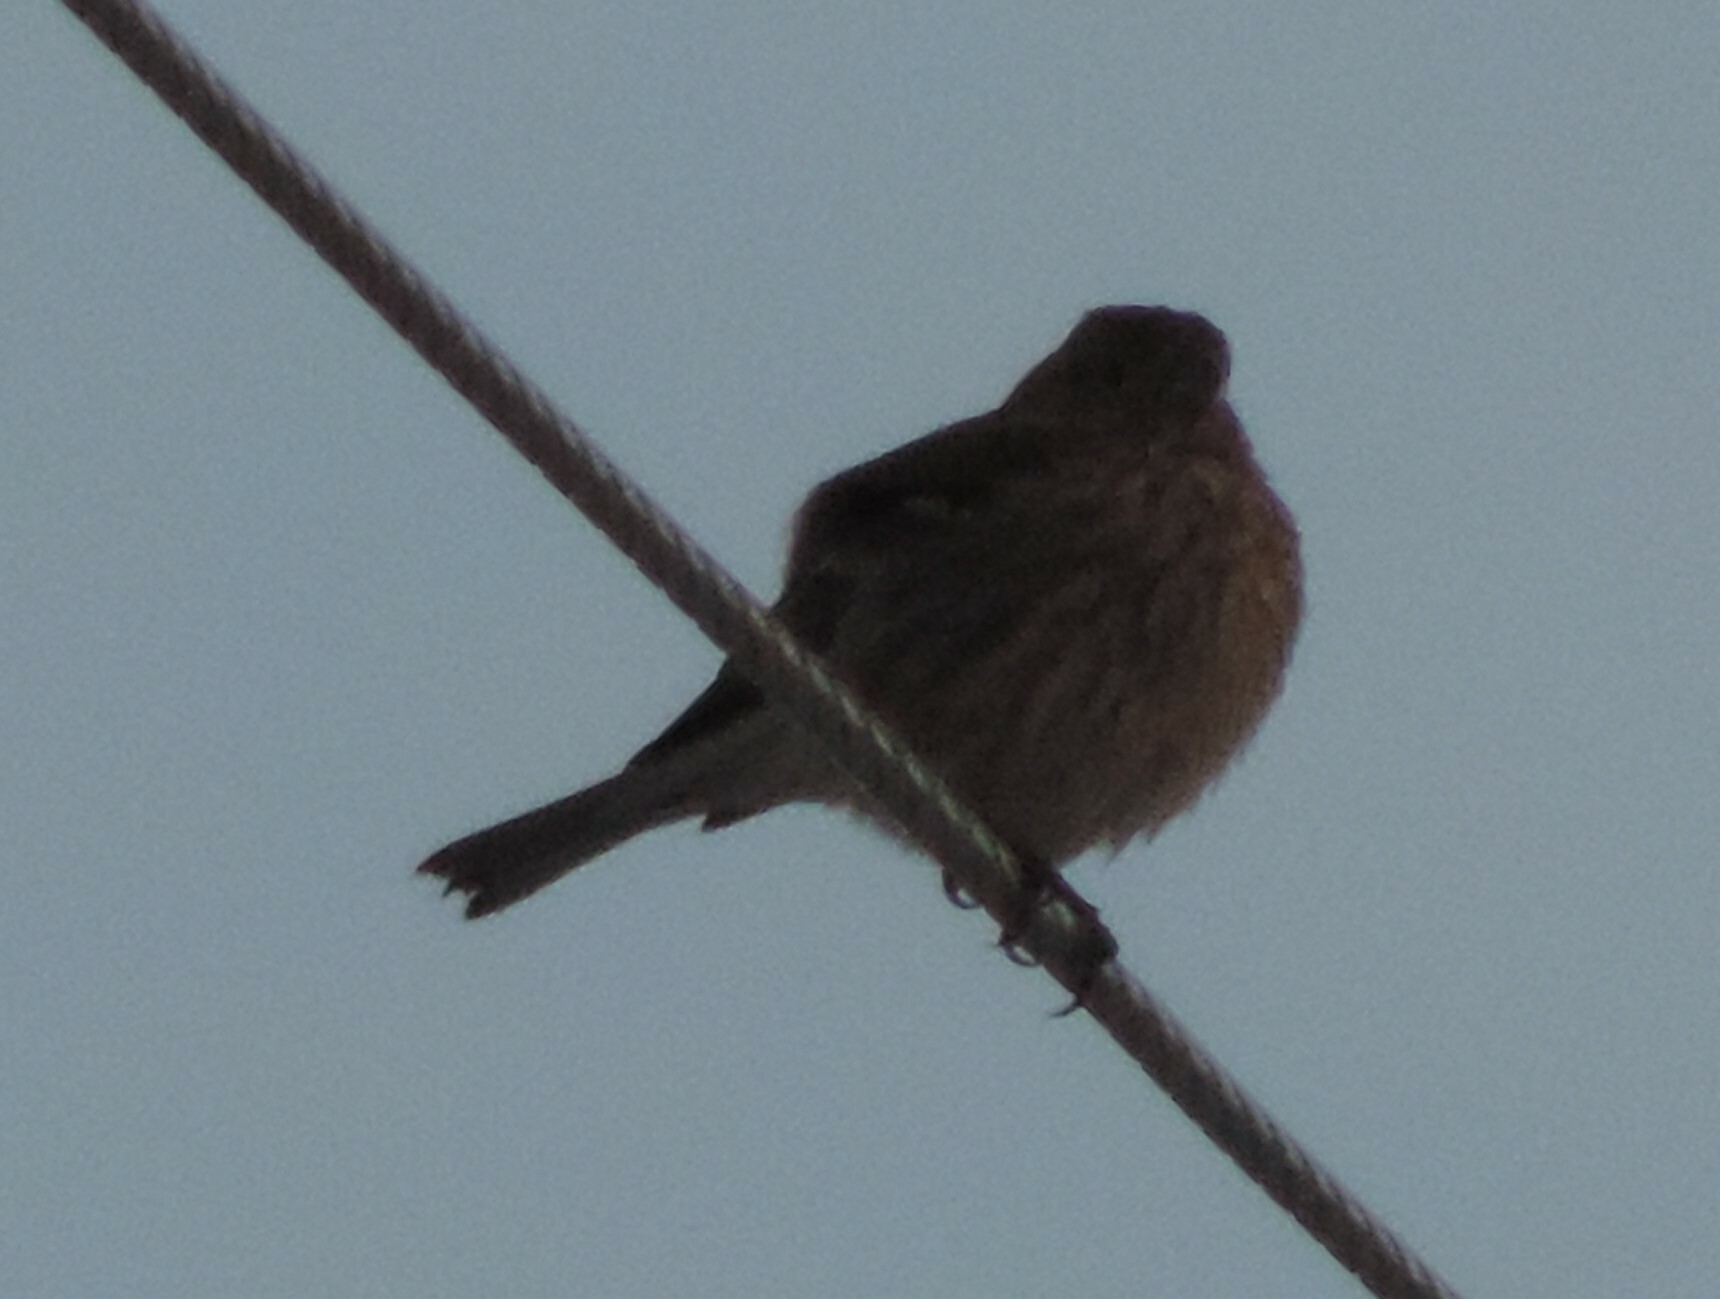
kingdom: Animalia
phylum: Chordata
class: Aves
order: Passeriformes
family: Fringillidae
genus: Haemorhous
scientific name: Haemorhous mexicanus
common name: House finch
